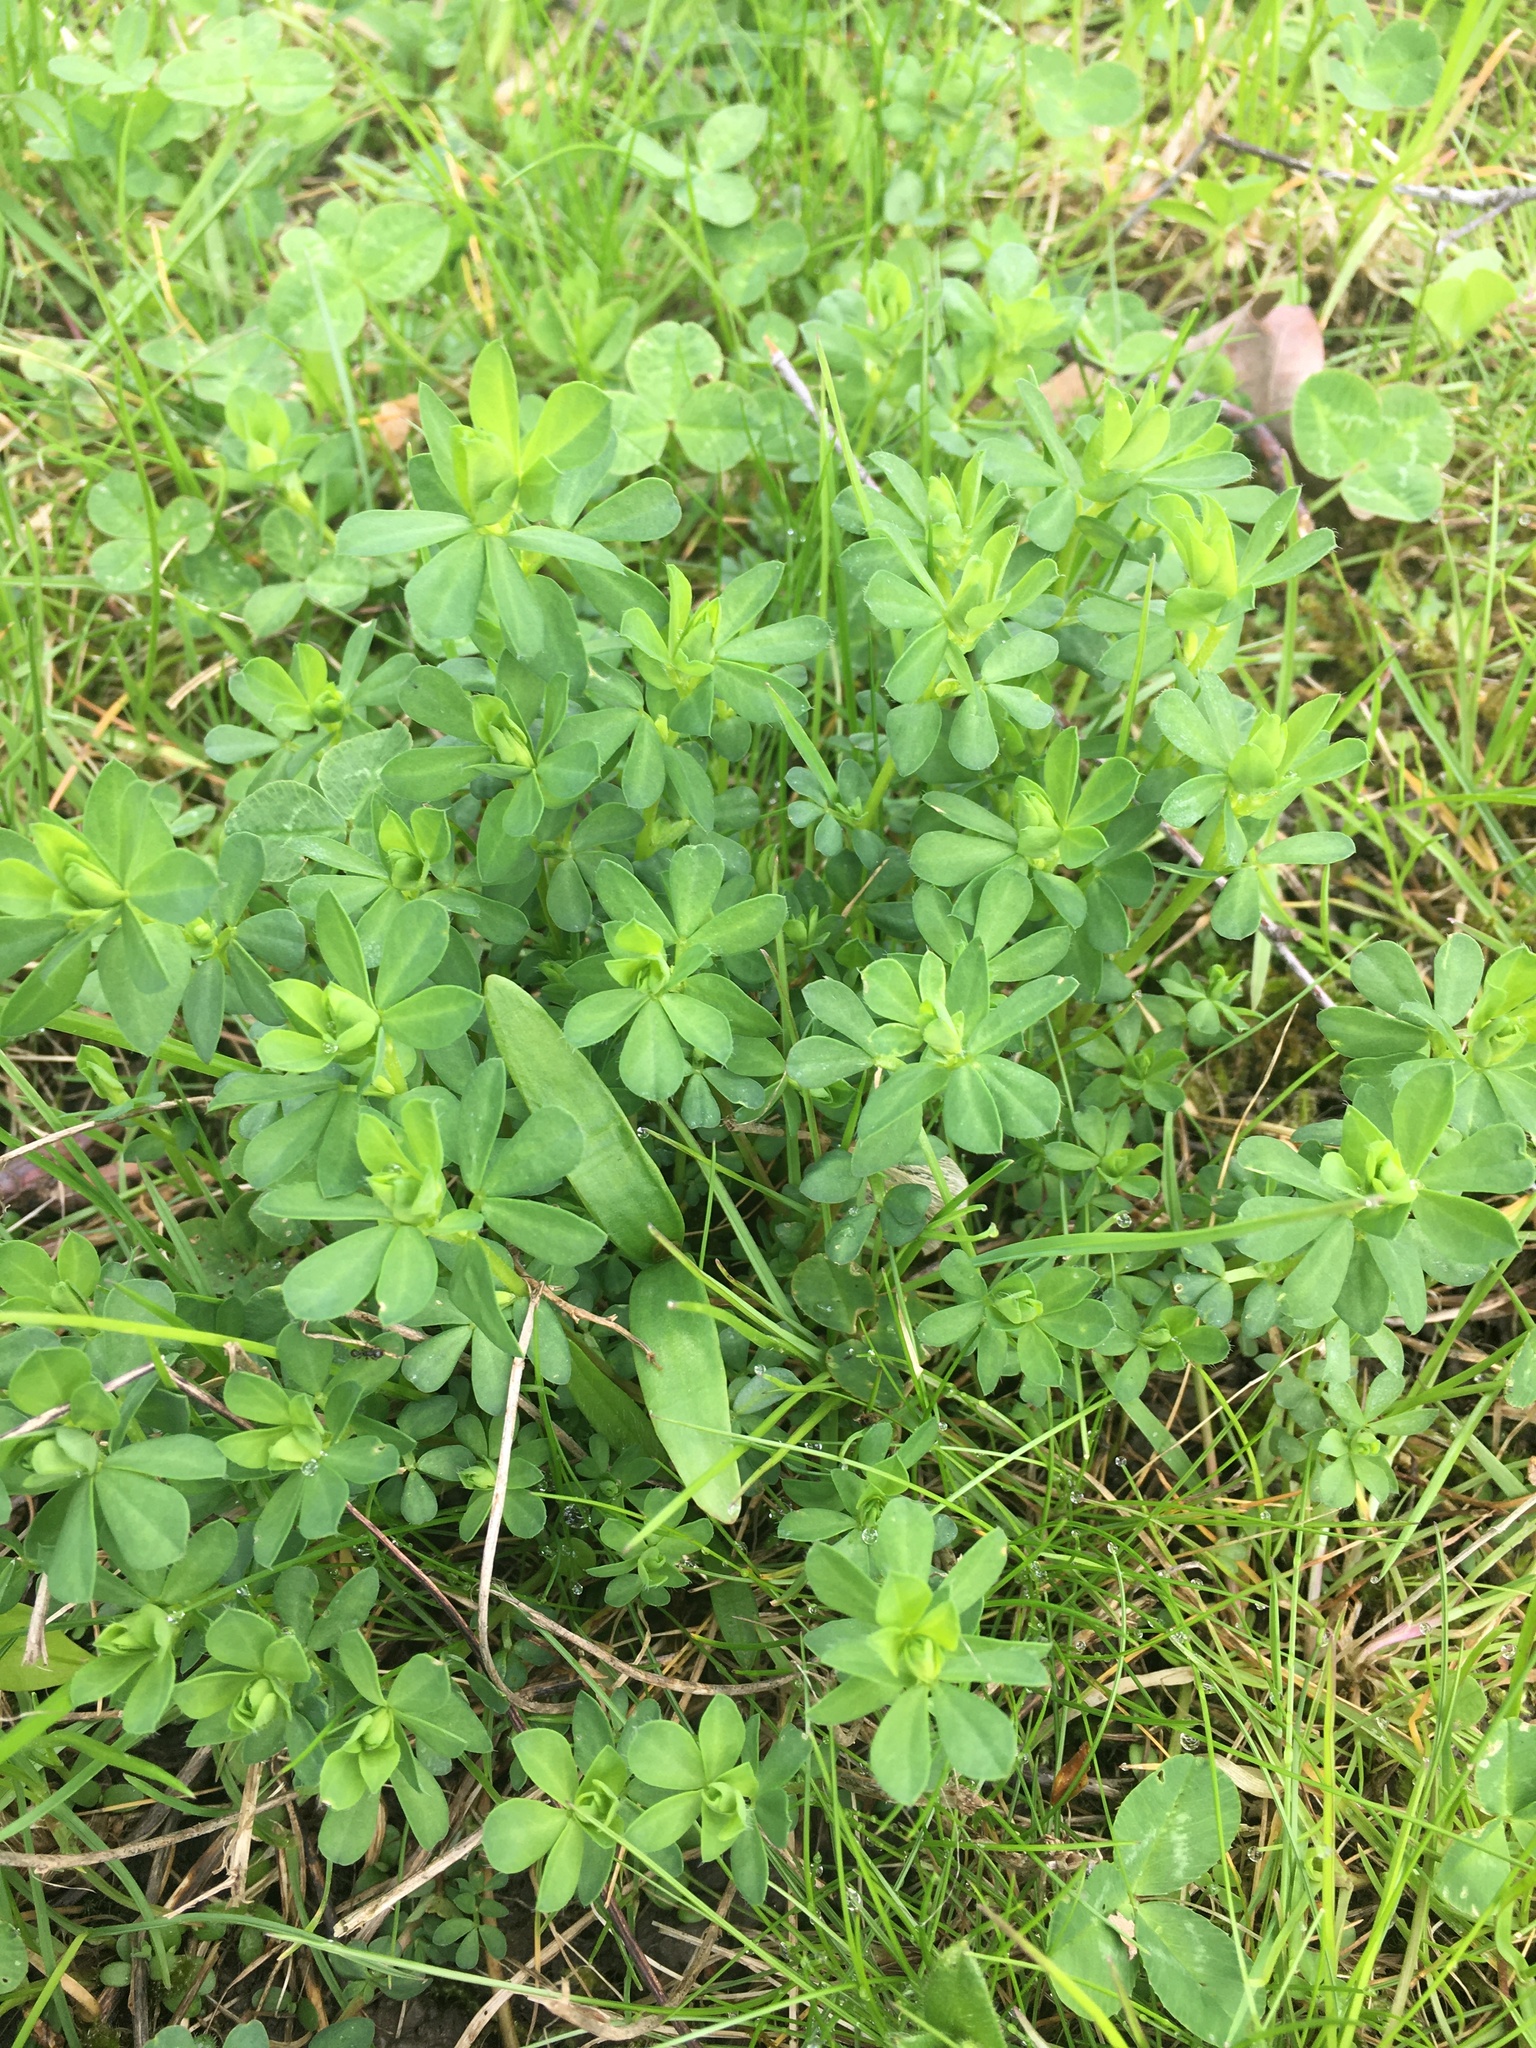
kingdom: Plantae
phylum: Tracheophyta
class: Magnoliopsida
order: Fabales
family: Fabaceae
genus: Lotus
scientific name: Lotus corniculatus
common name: Common bird's-foot-trefoil
